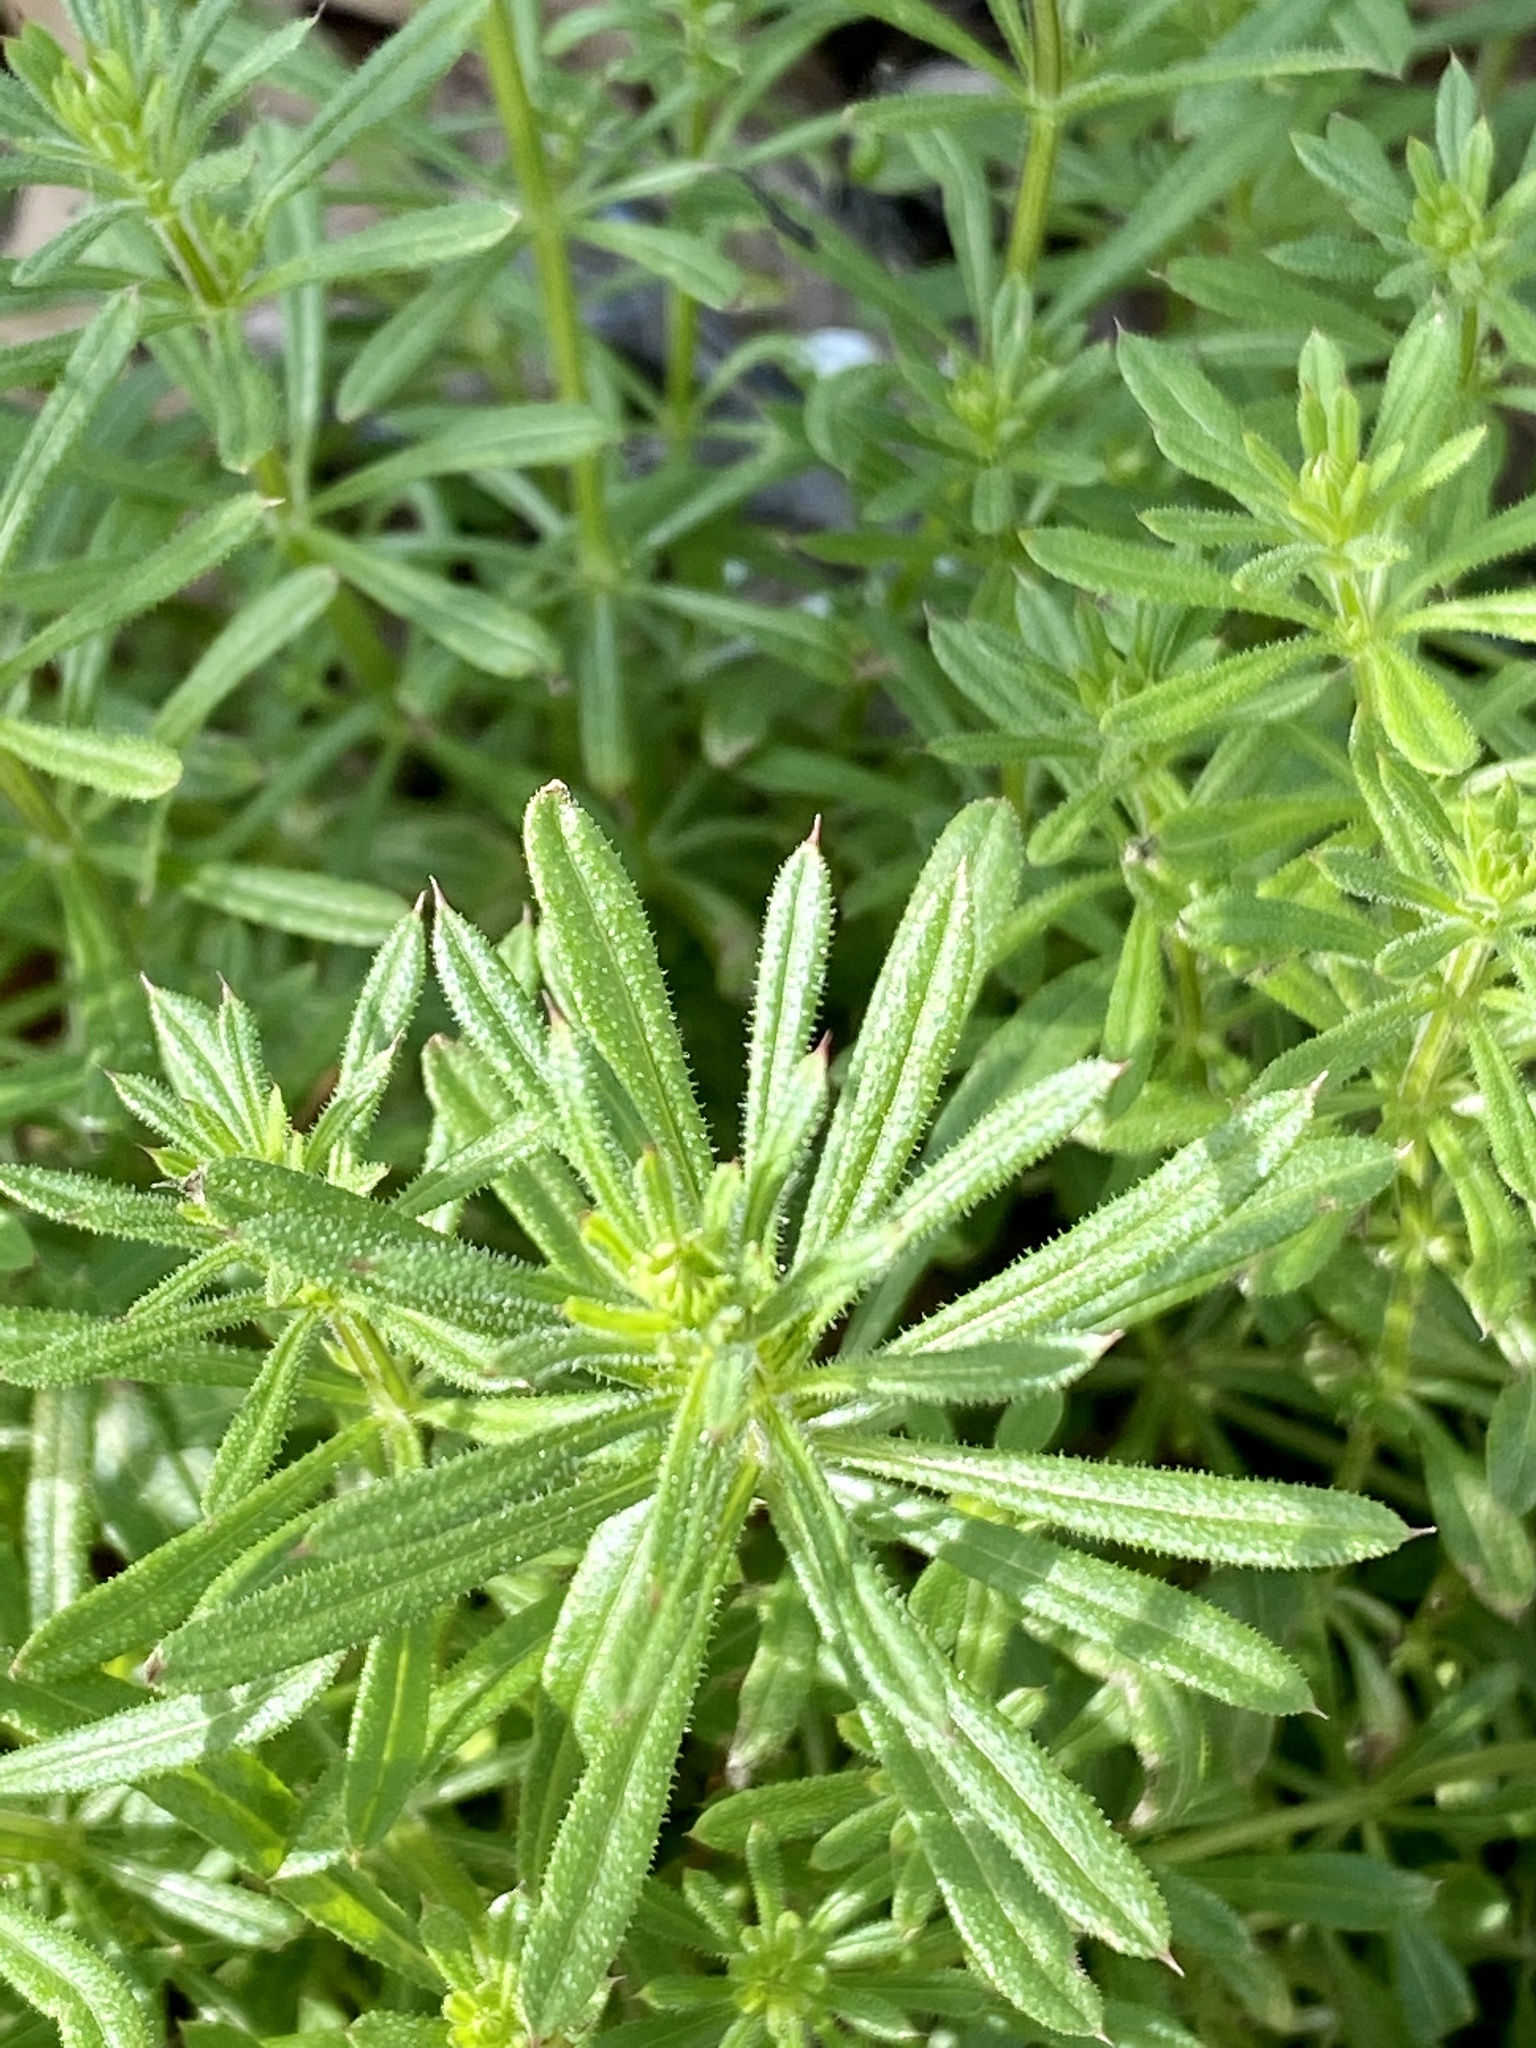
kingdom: Plantae
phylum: Tracheophyta
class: Magnoliopsida
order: Gentianales
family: Rubiaceae
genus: Galium
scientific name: Galium aparine
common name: Cleavers
